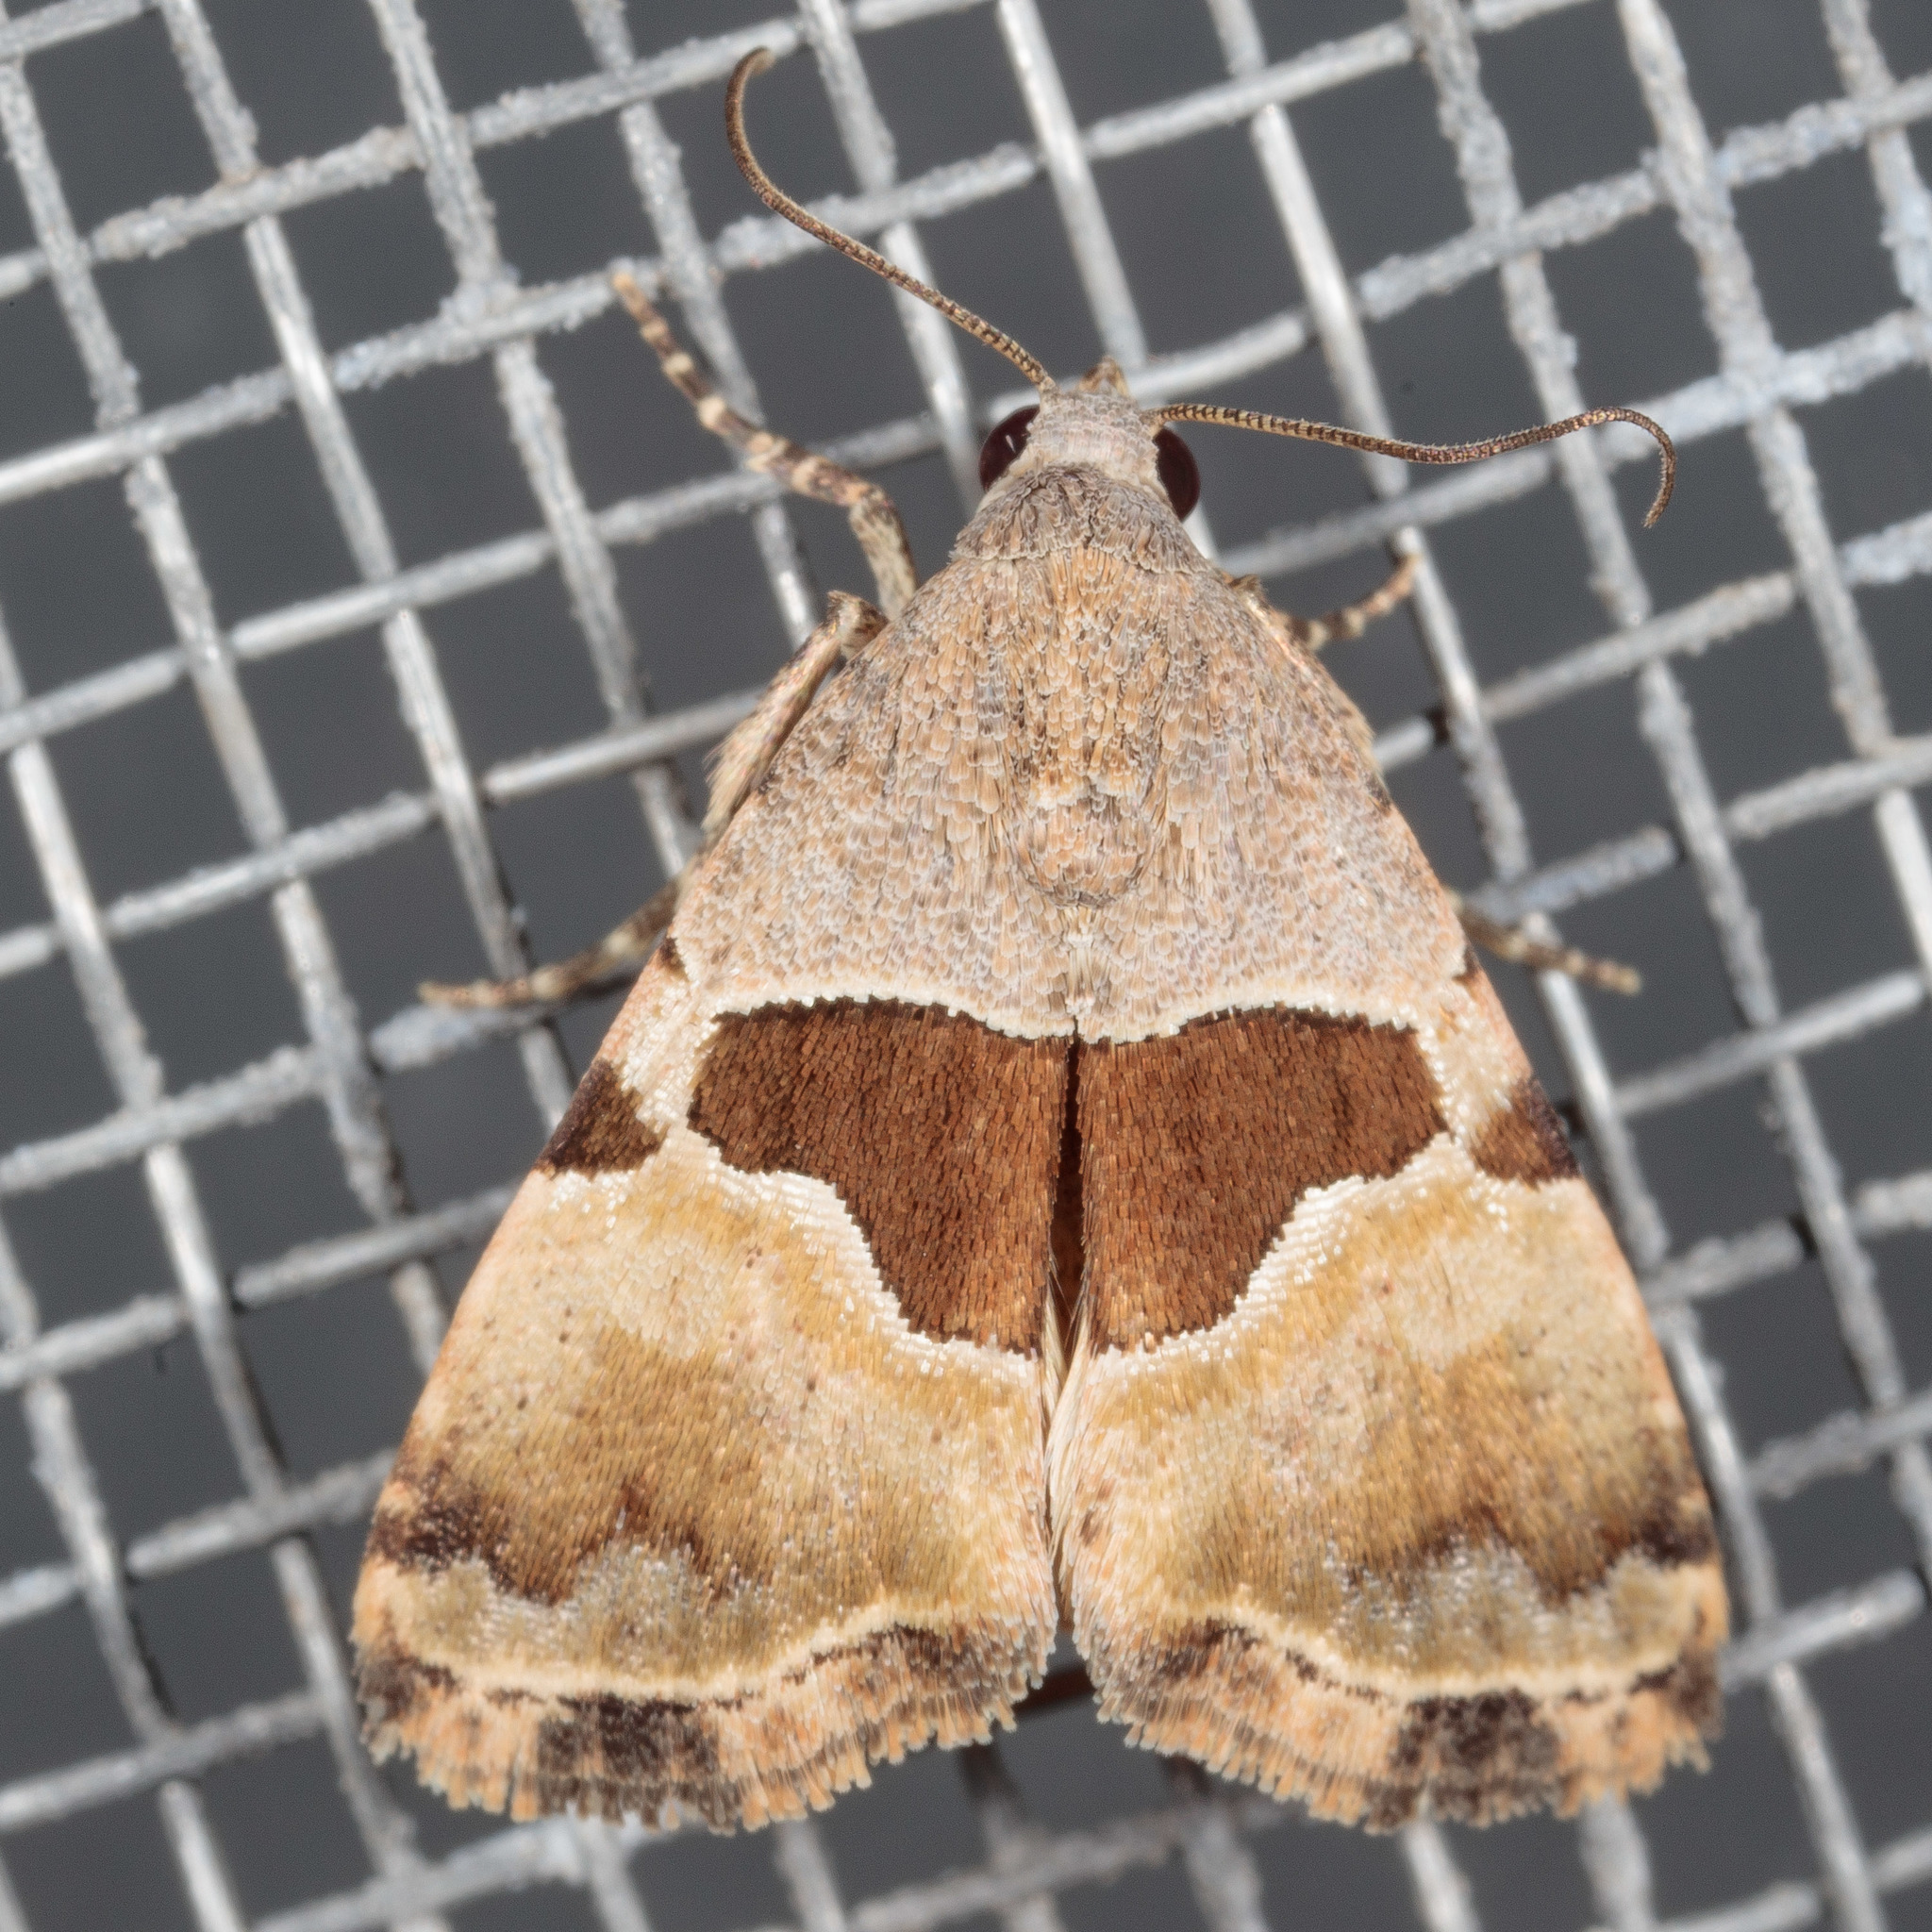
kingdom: Animalia
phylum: Arthropoda
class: Insecta
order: Lepidoptera
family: Noctuidae
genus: Cobubatha
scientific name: Cobubatha lixiva
